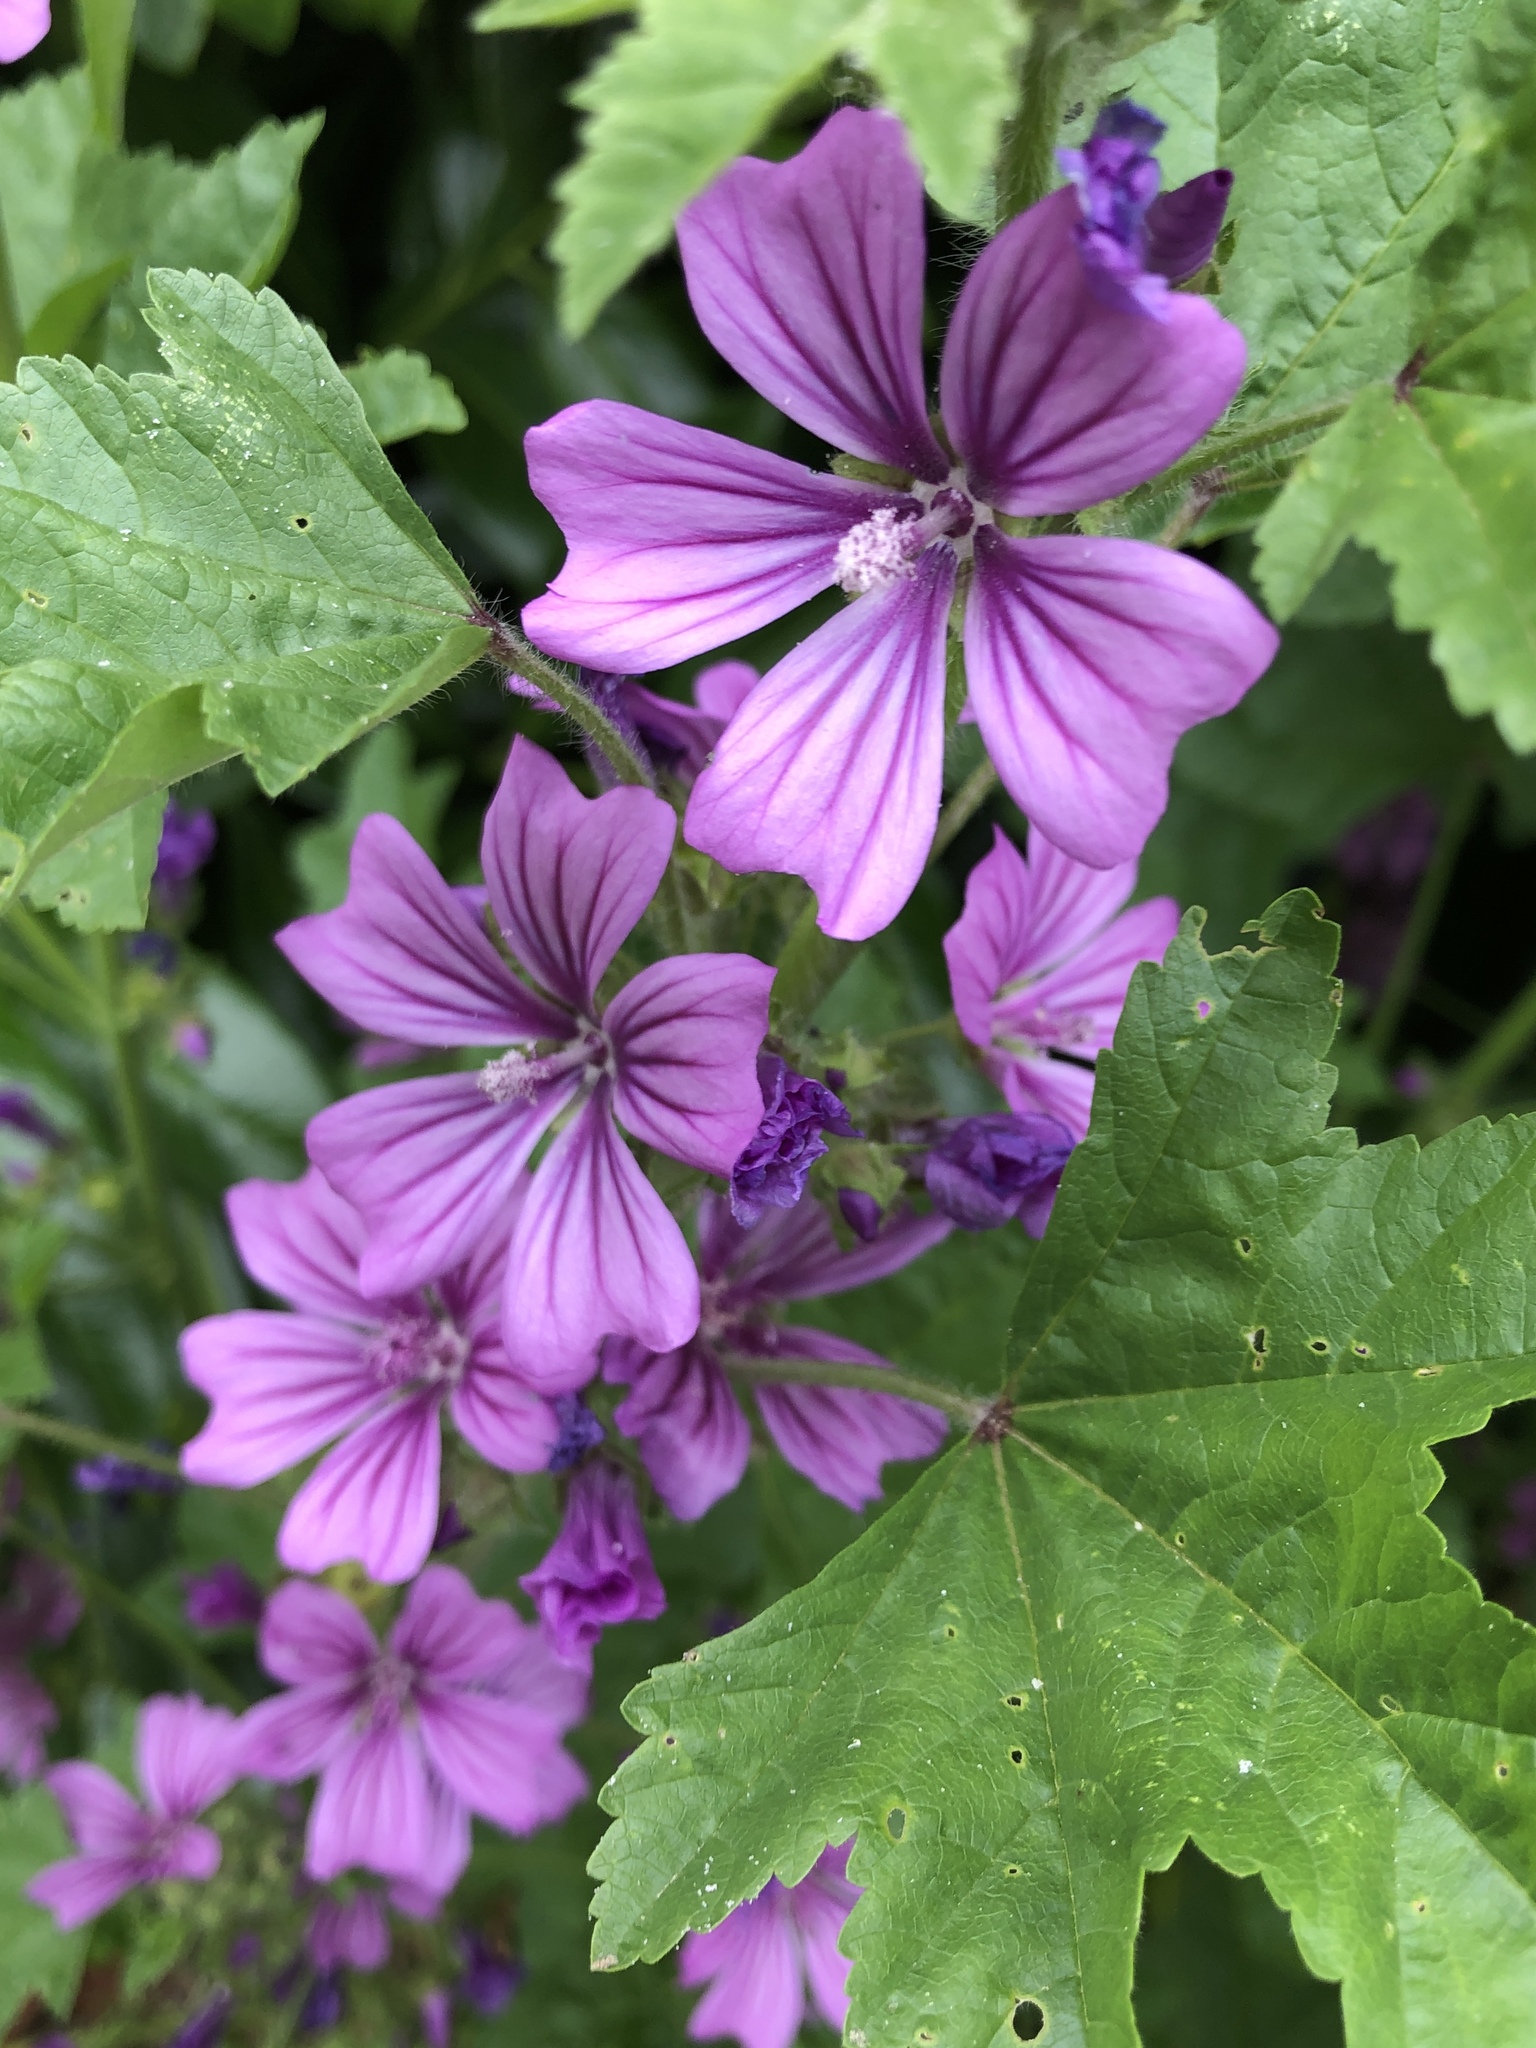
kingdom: Plantae
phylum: Tracheophyta
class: Magnoliopsida
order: Malvales
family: Malvaceae
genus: Malva
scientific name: Malva sylvestris
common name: Common mallow
